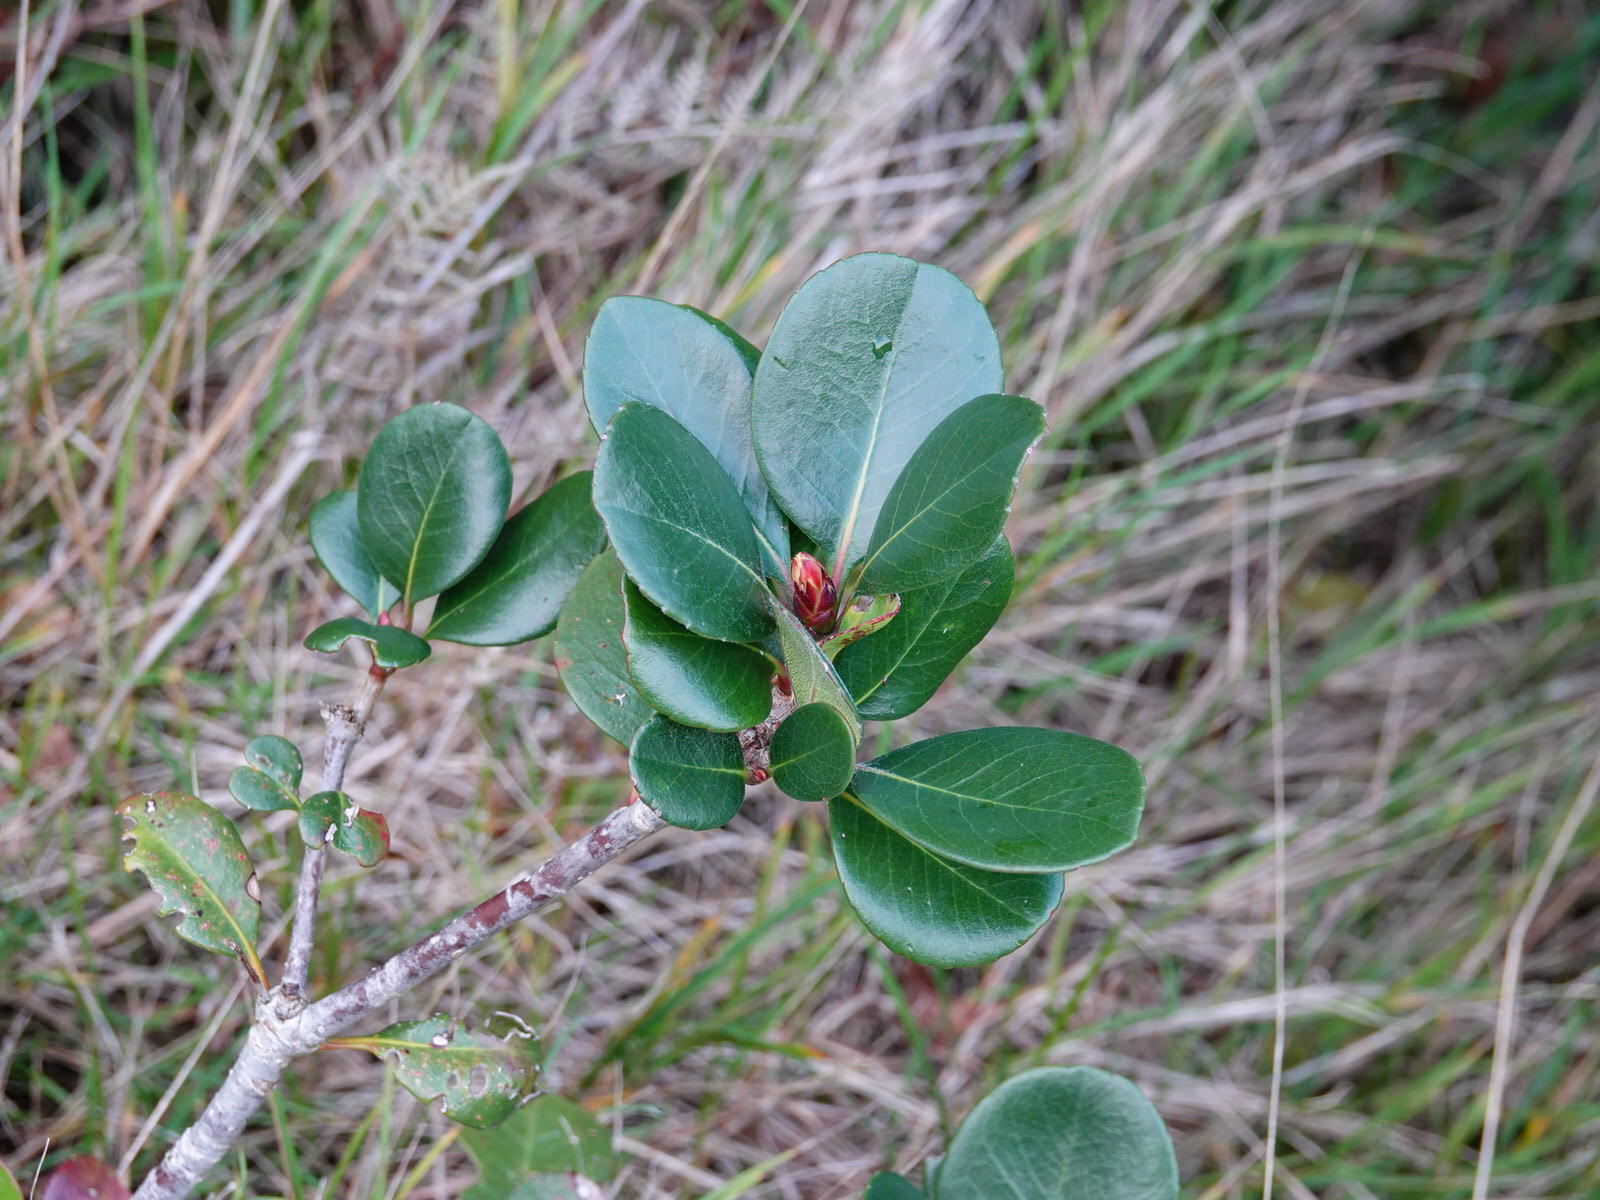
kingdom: Plantae
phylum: Tracheophyta
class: Magnoliopsida
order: Rosales
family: Rosaceae
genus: Rhaphiolepis
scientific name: Rhaphiolepis indica
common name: India-hawthorn
